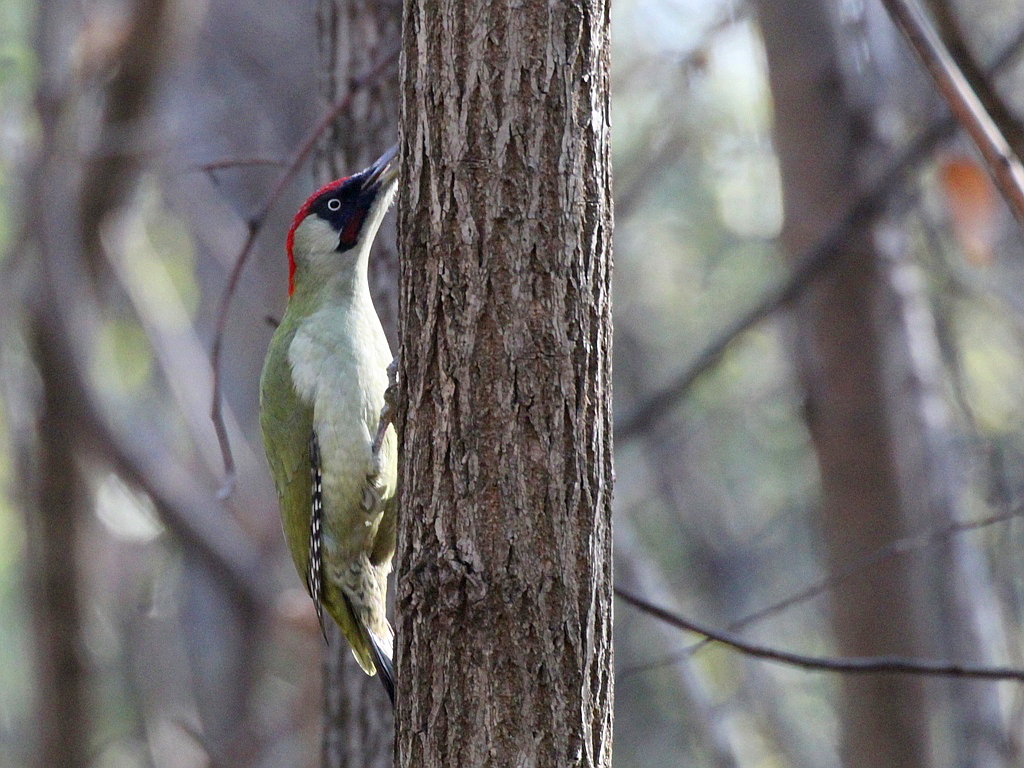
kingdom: Animalia
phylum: Chordata
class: Aves
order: Piciformes
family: Picidae
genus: Picus
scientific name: Picus viridis
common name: European green woodpecker
